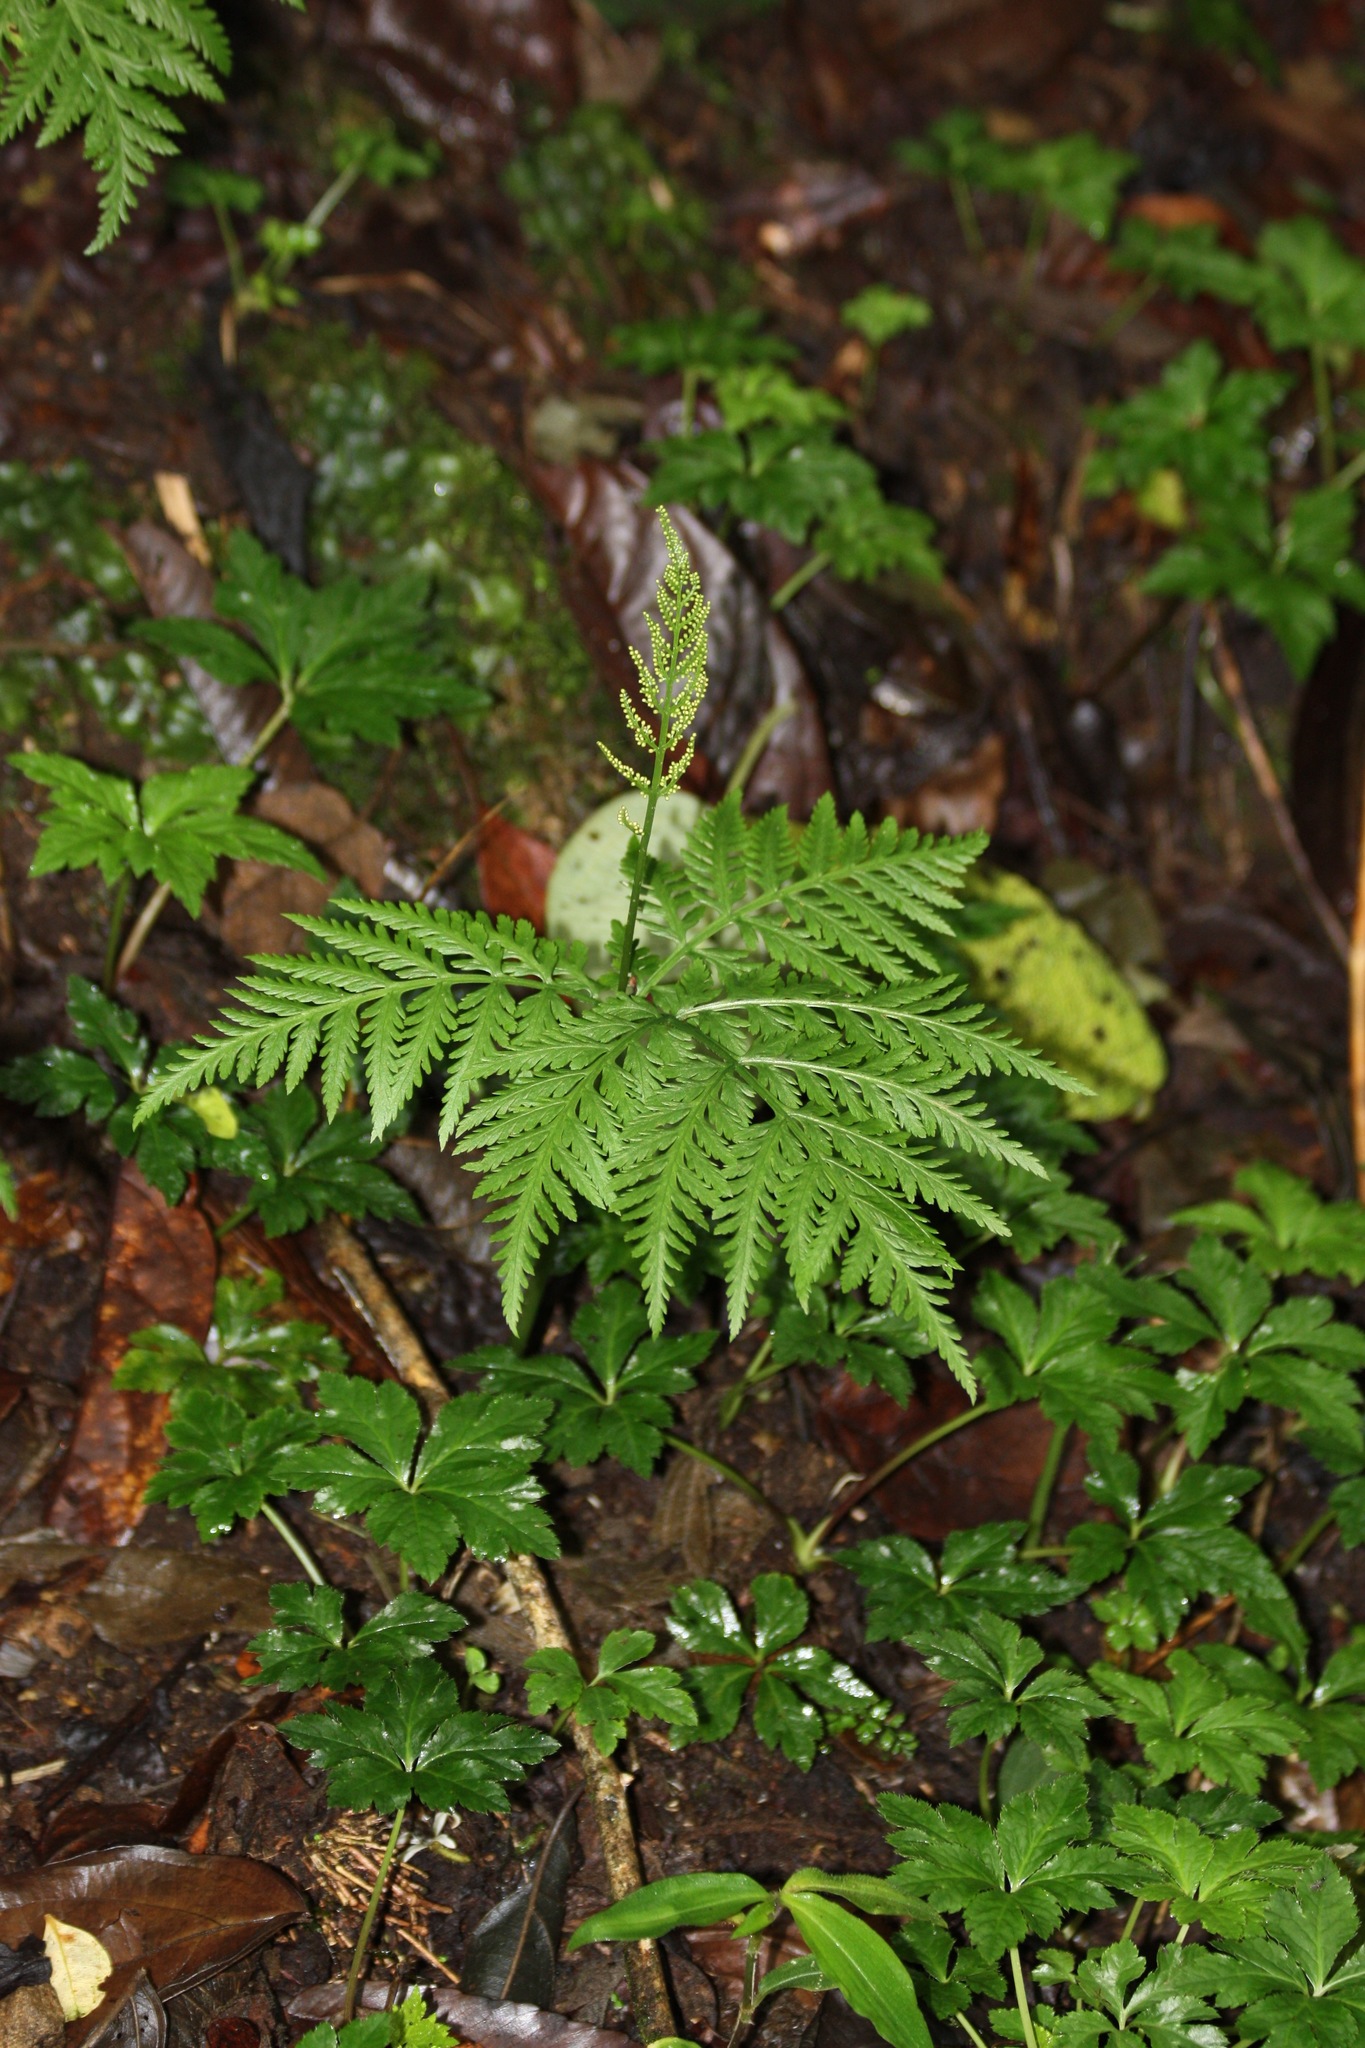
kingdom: Plantae
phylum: Tracheophyta
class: Polypodiopsida
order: Ophioglossales
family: Ophioglossaceae
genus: Botrypus
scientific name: Botrypus virginianus
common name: Common grapefern
